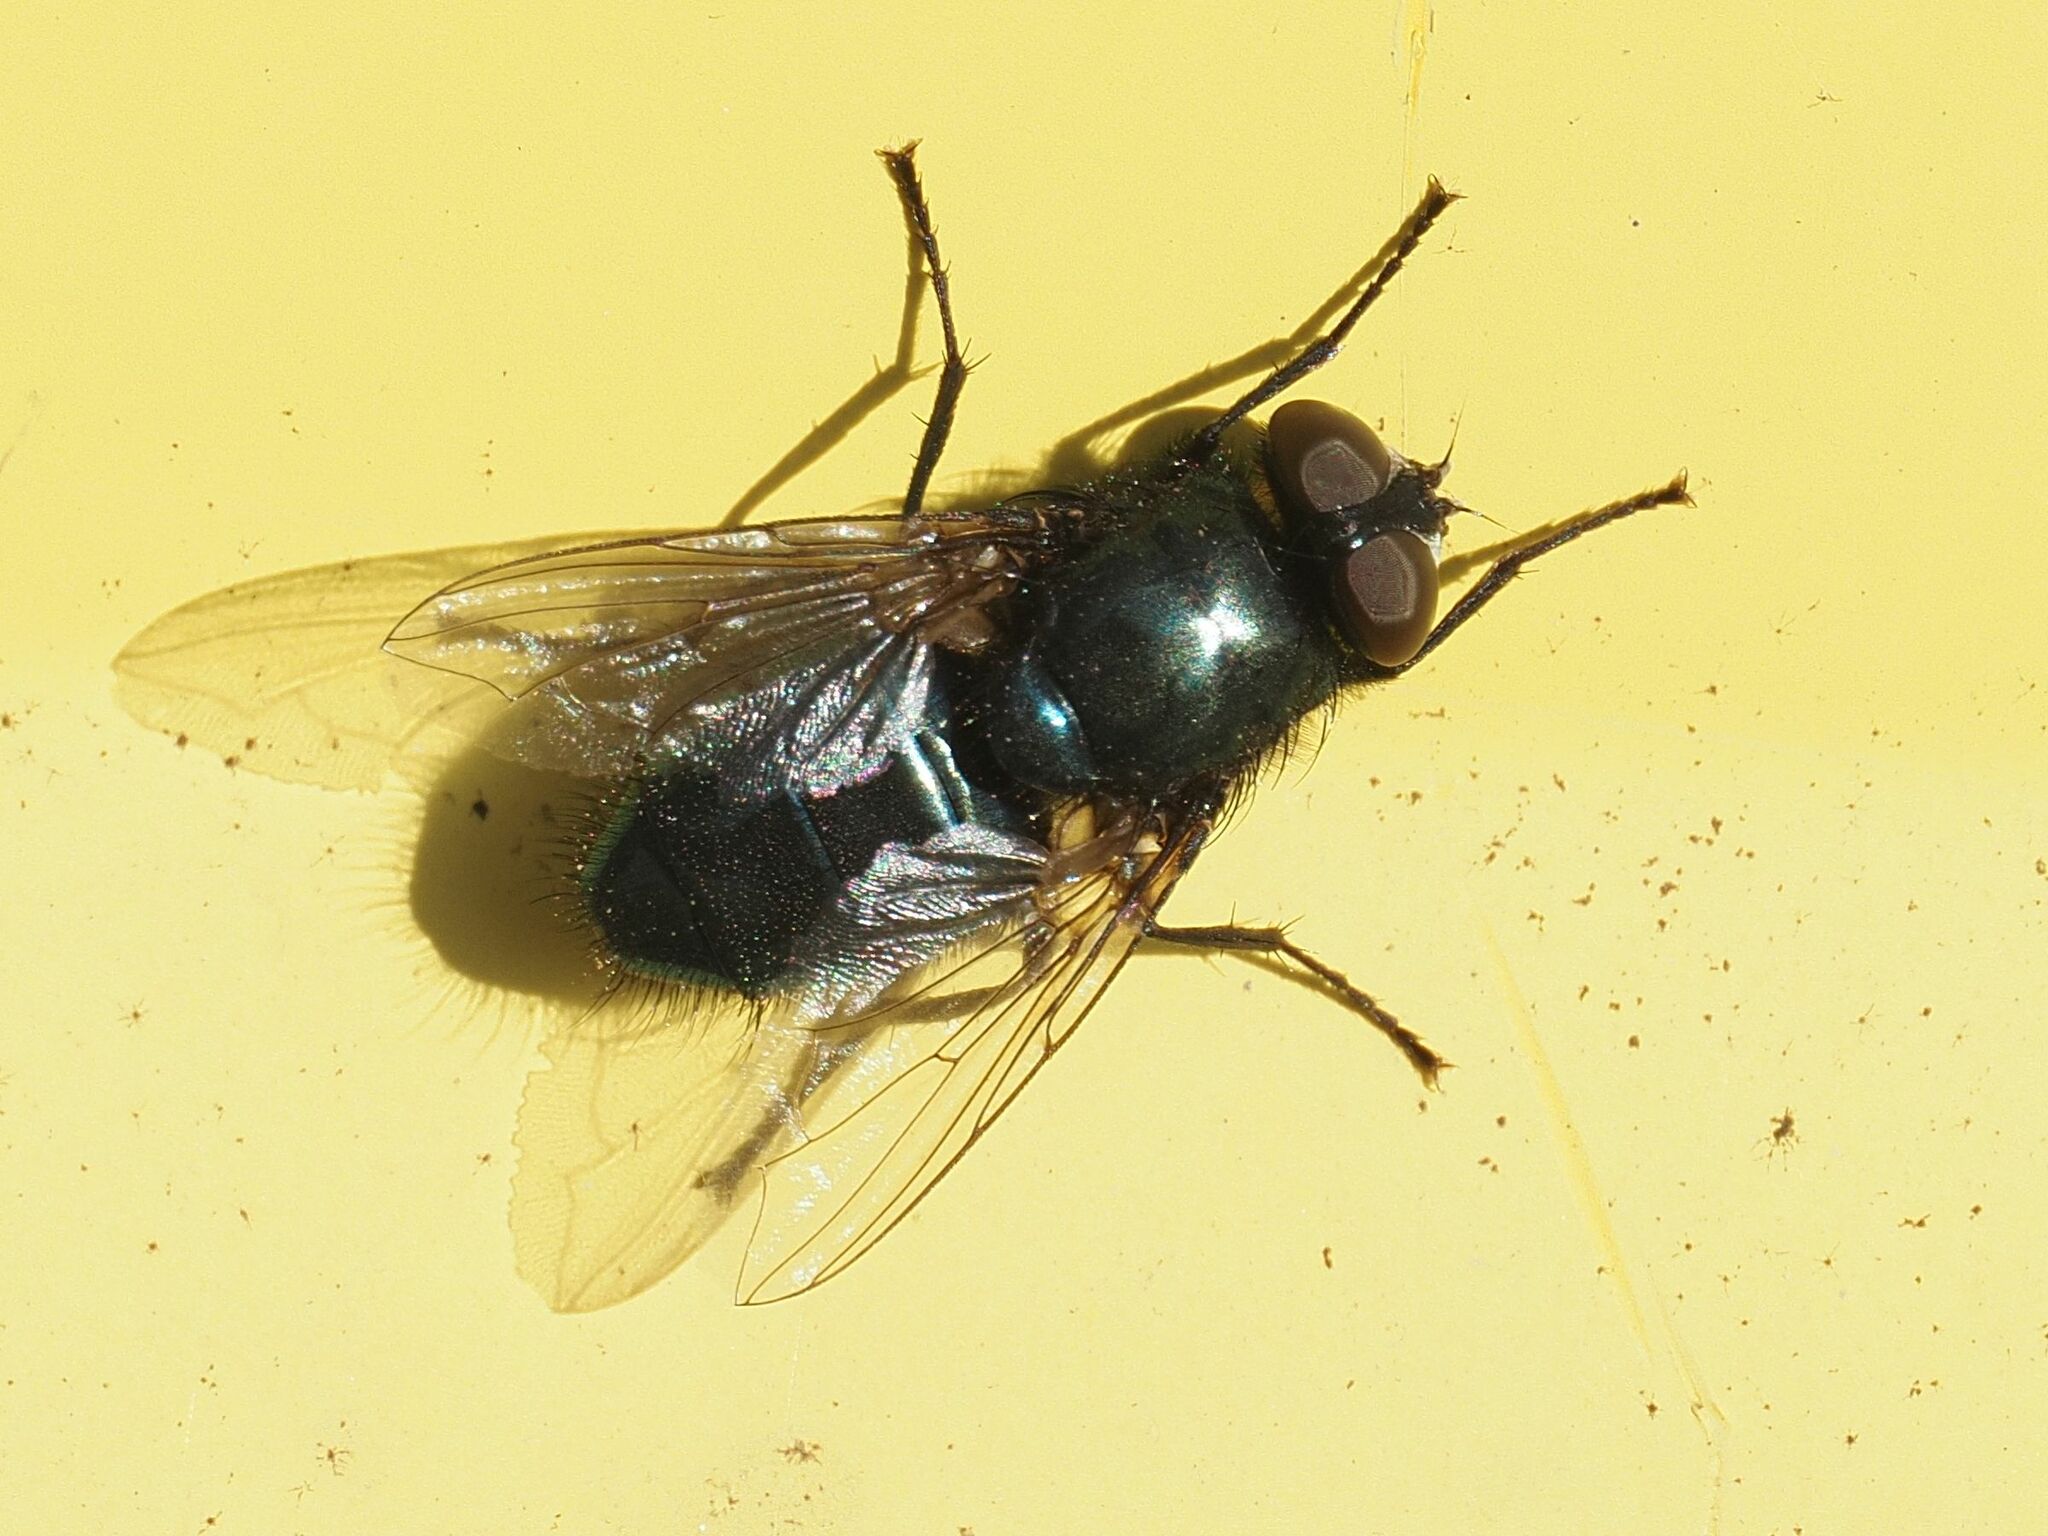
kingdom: Animalia
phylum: Arthropoda
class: Insecta
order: Diptera
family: Calliphoridae
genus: Protophormia
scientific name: Protophormia terraenovae
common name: Blackbottle
